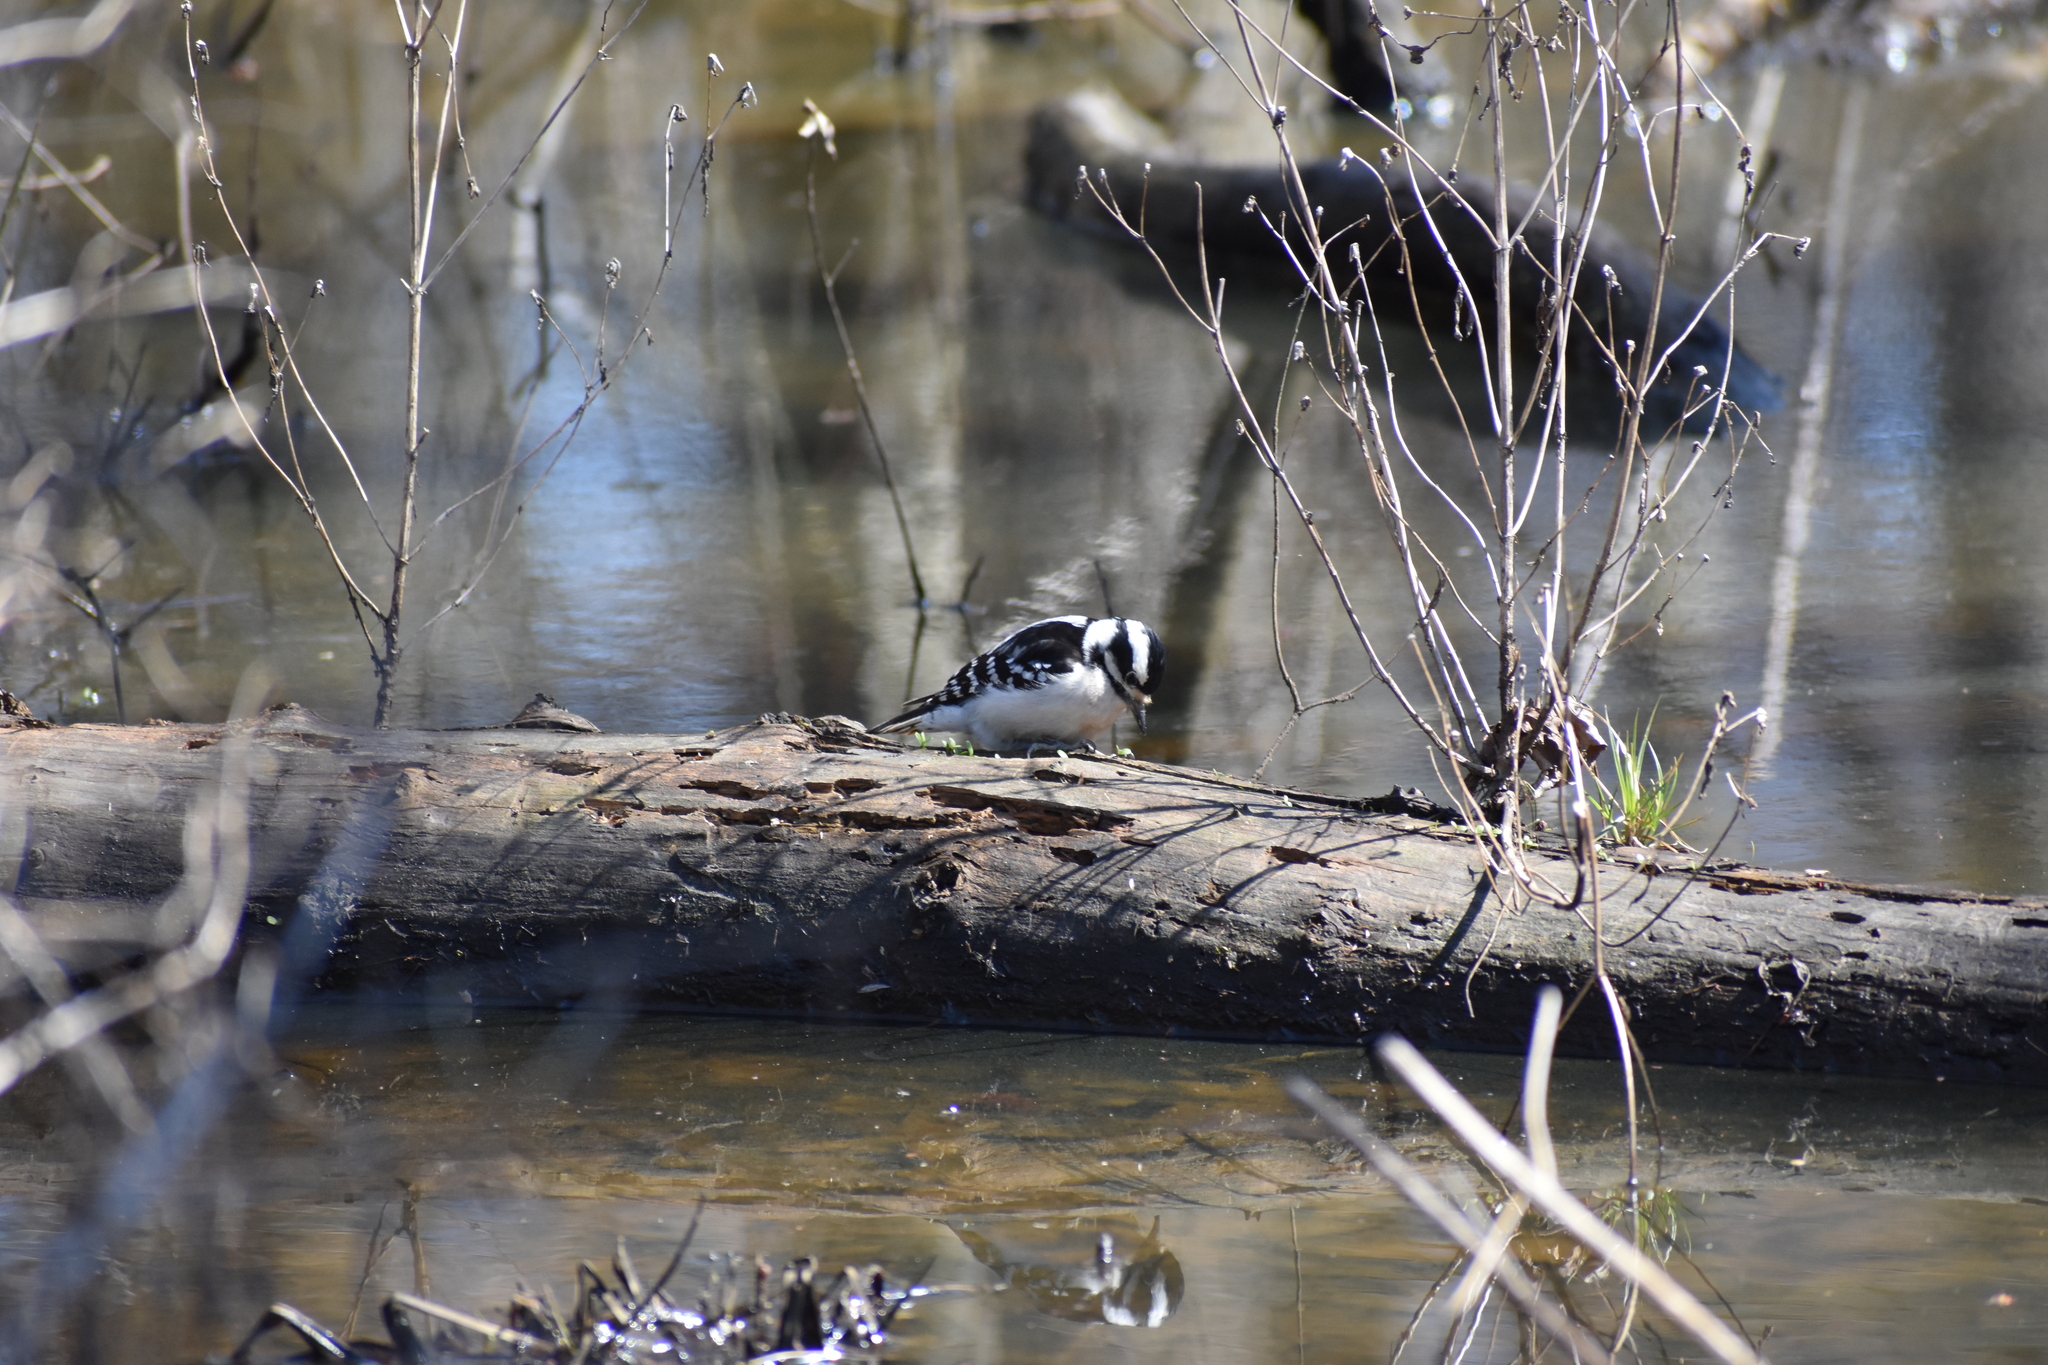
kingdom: Animalia
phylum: Chordata
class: Aves
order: Piciformes
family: Picidae
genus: Dryobates
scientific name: Dryobates pubescens
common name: Downy woodpecker
